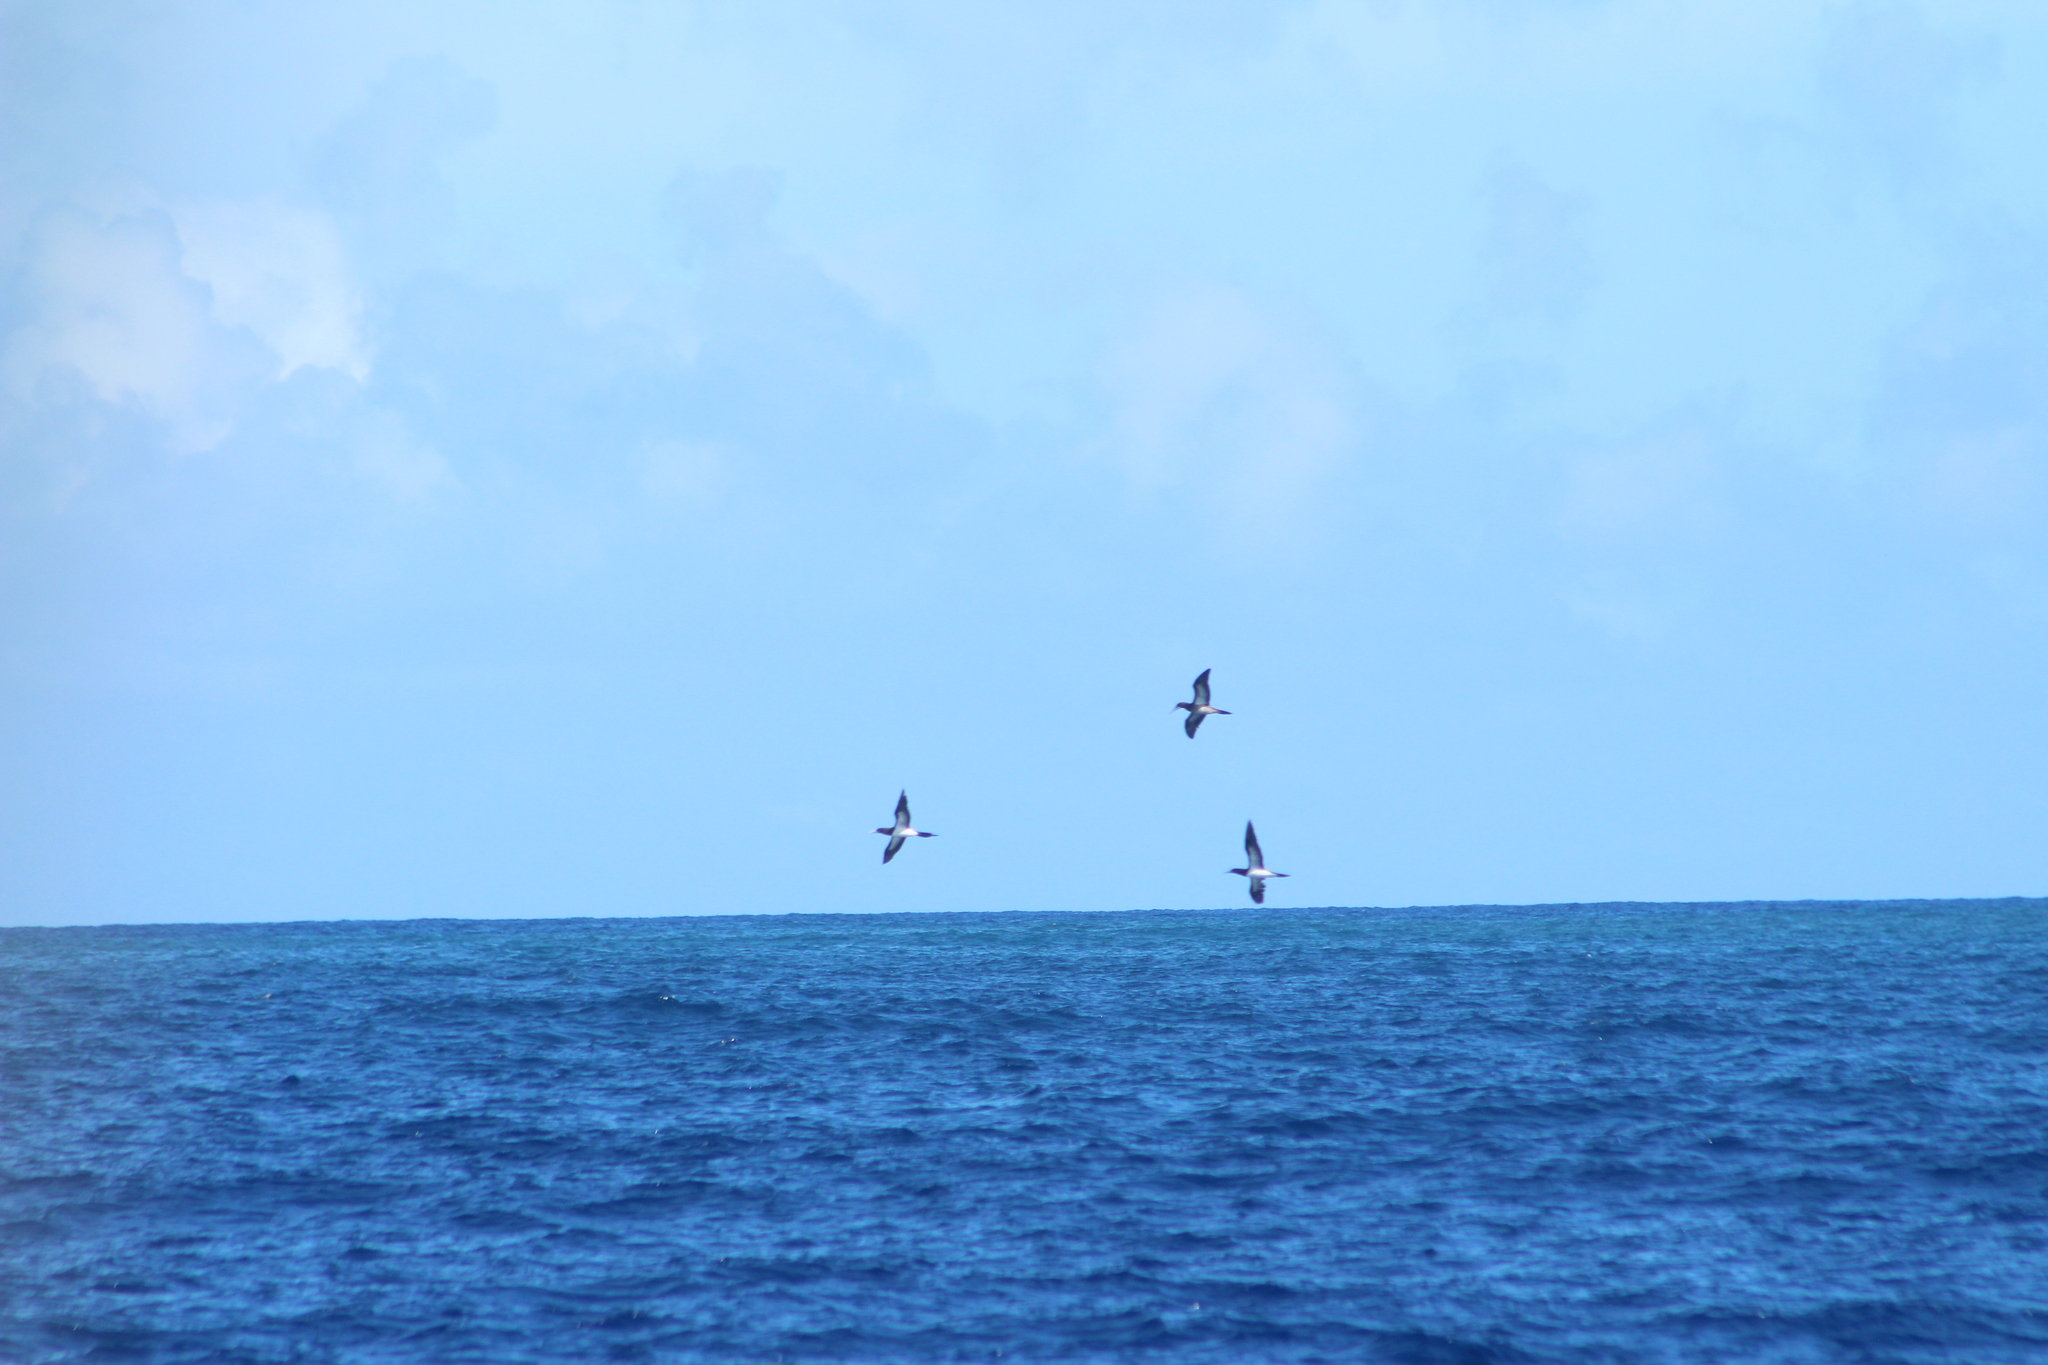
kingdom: Animalia
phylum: Chordata
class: Aves
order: Suliformes
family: Sulidae
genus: Sula
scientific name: Sula leucogaster
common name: Brown booby
